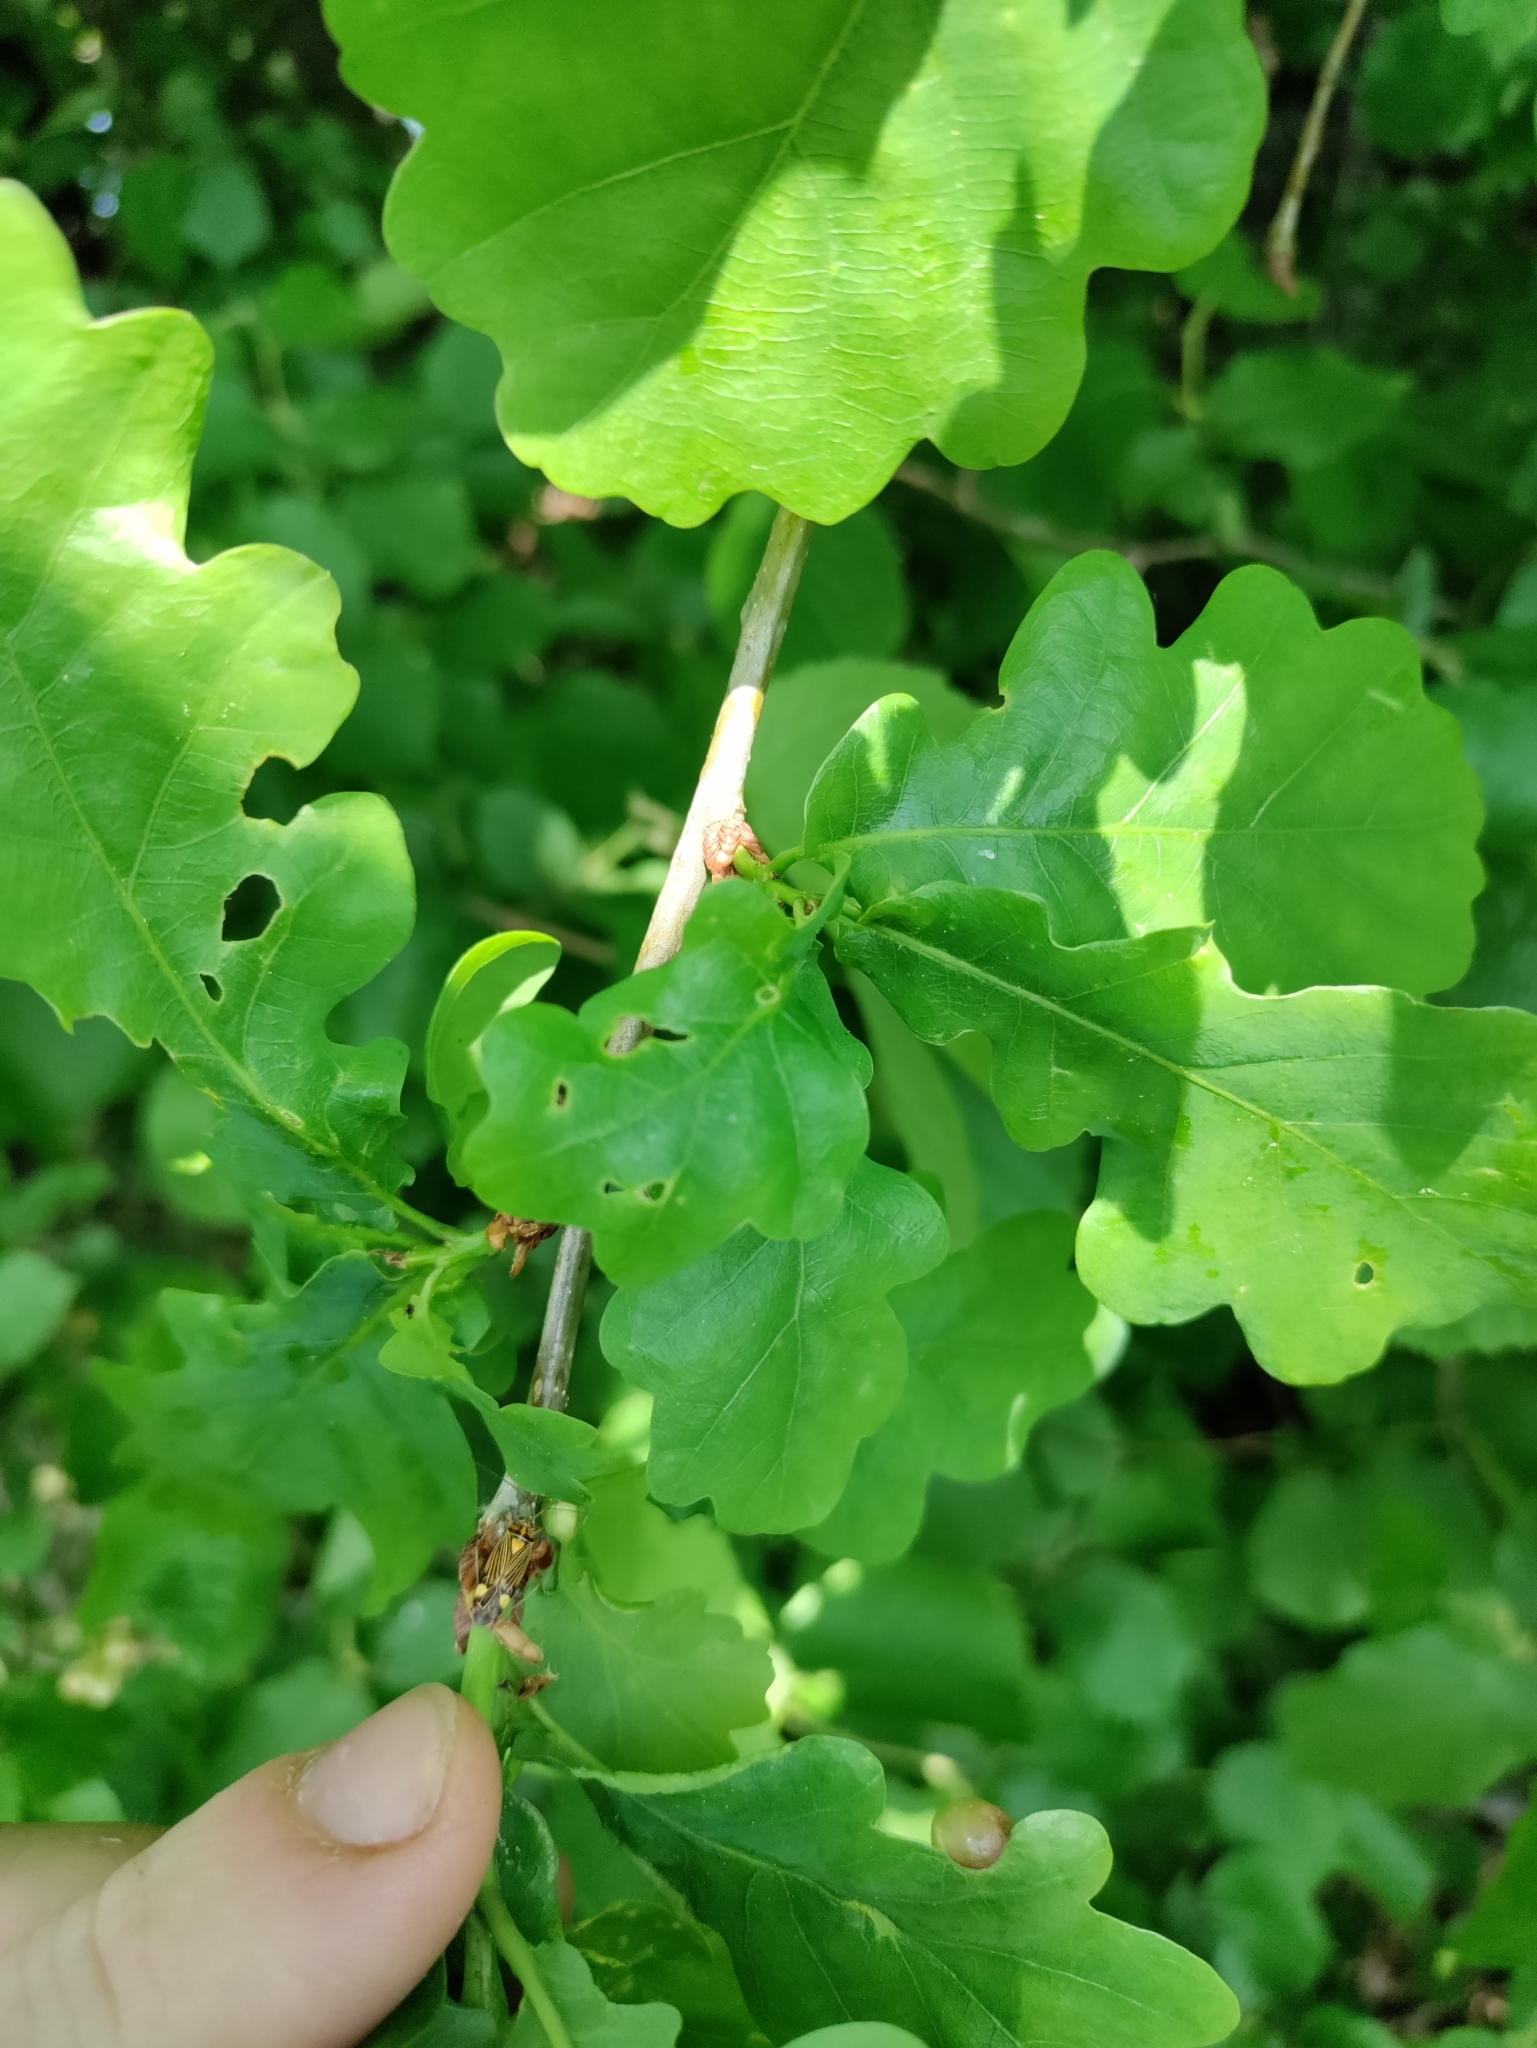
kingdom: Plantae
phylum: Tracheophyta
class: Magnoliopsida
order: Fagales
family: Fagaceae
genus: Quercus
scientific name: Quercus robur
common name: Pedunculate oak
